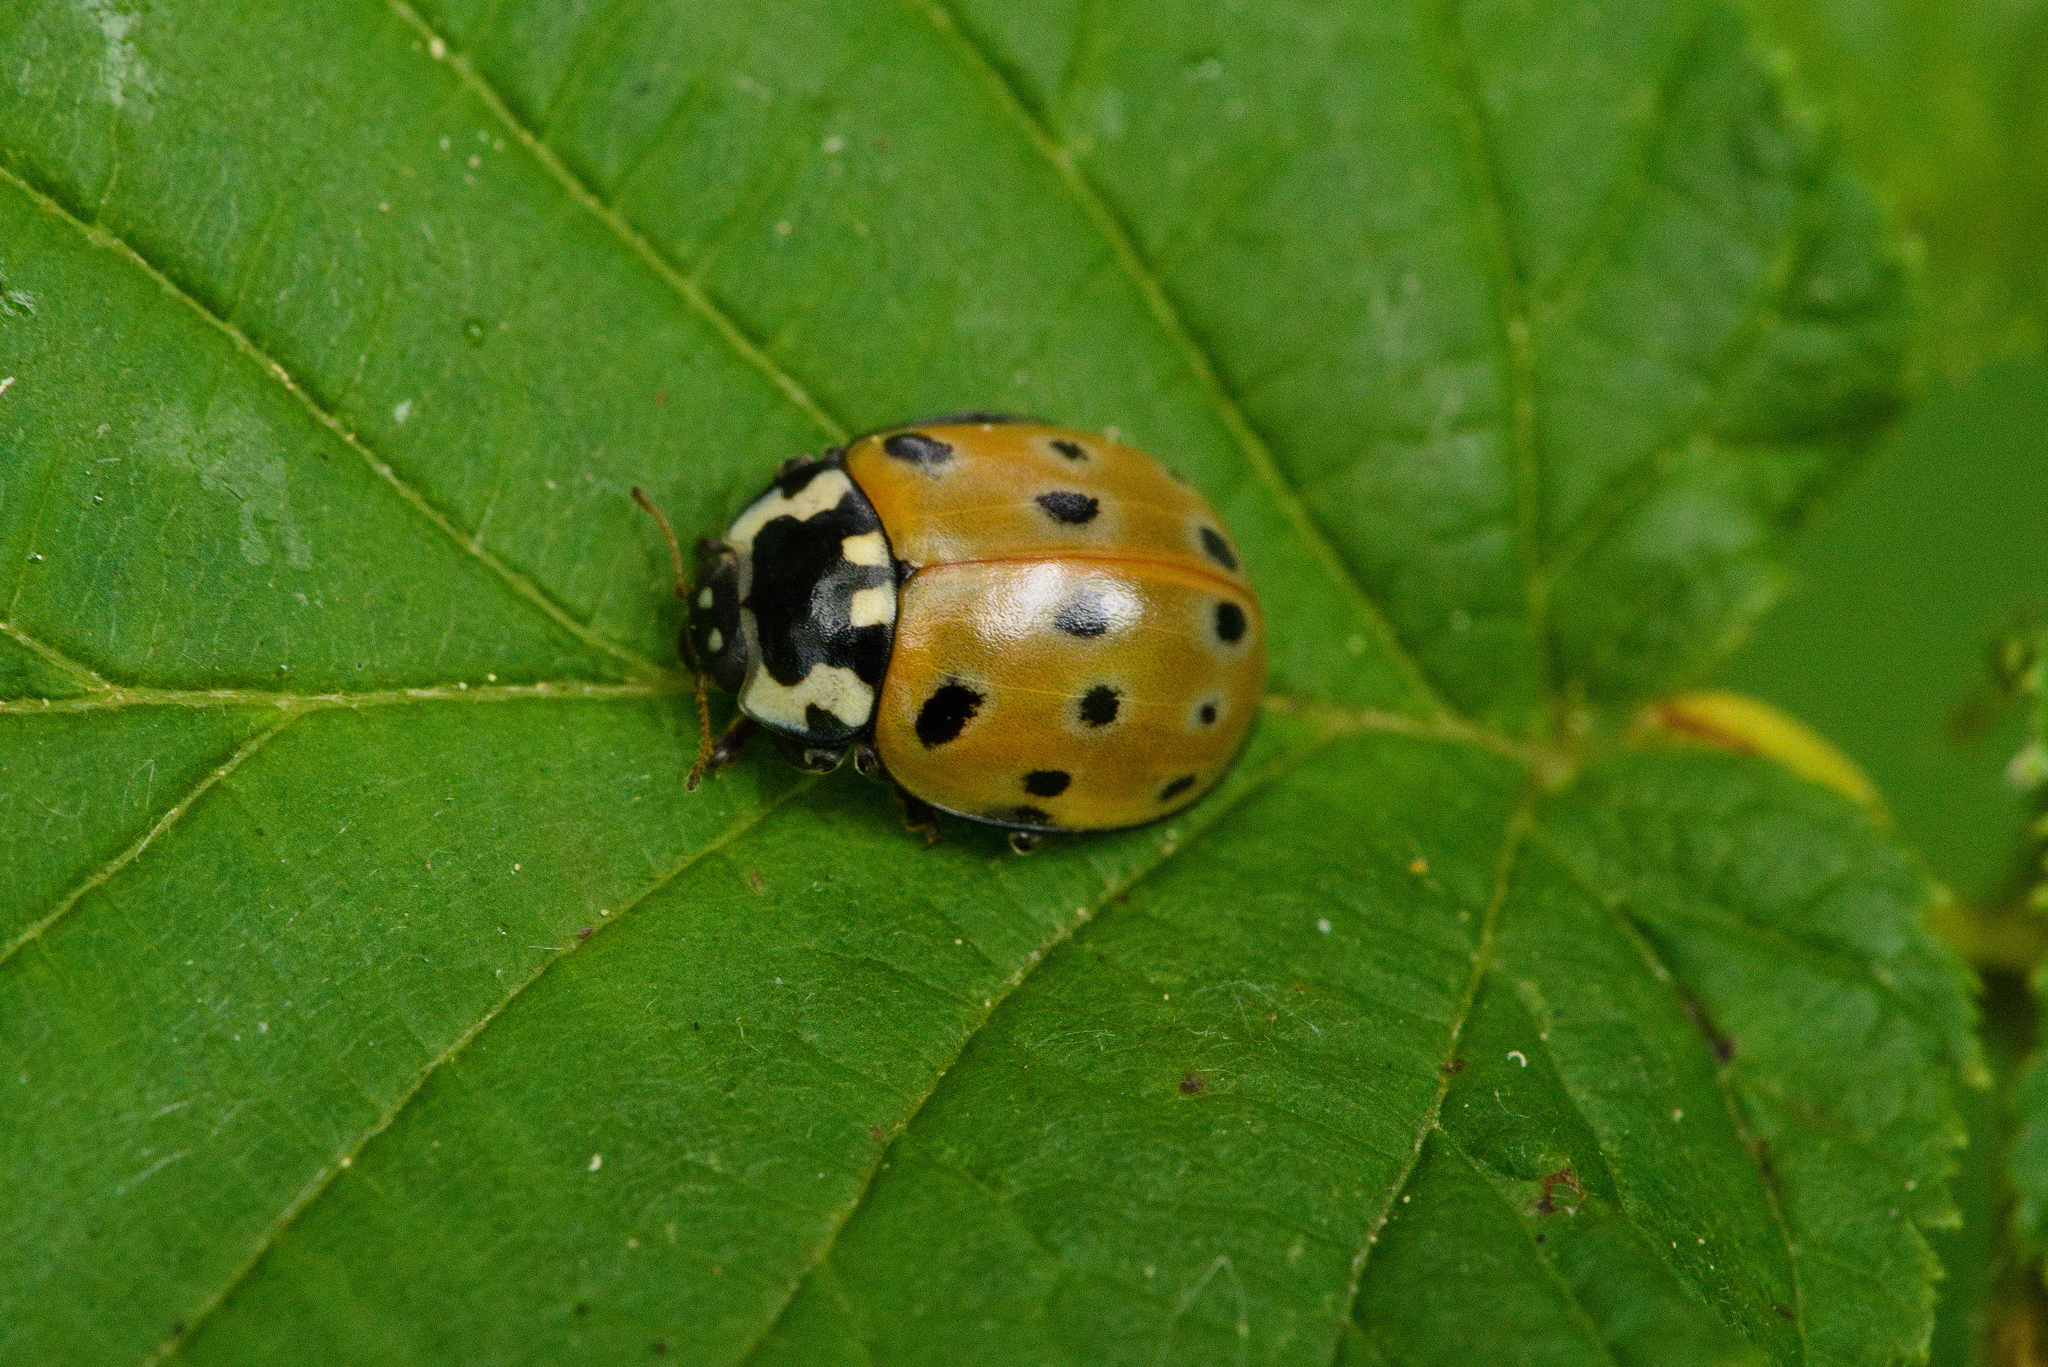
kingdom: Animalia
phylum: Arthropoda
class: Insecta
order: Coleoptera
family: Coccinellidae
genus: Anatis
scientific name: Anatis ocellata
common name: Eyed ladybird
